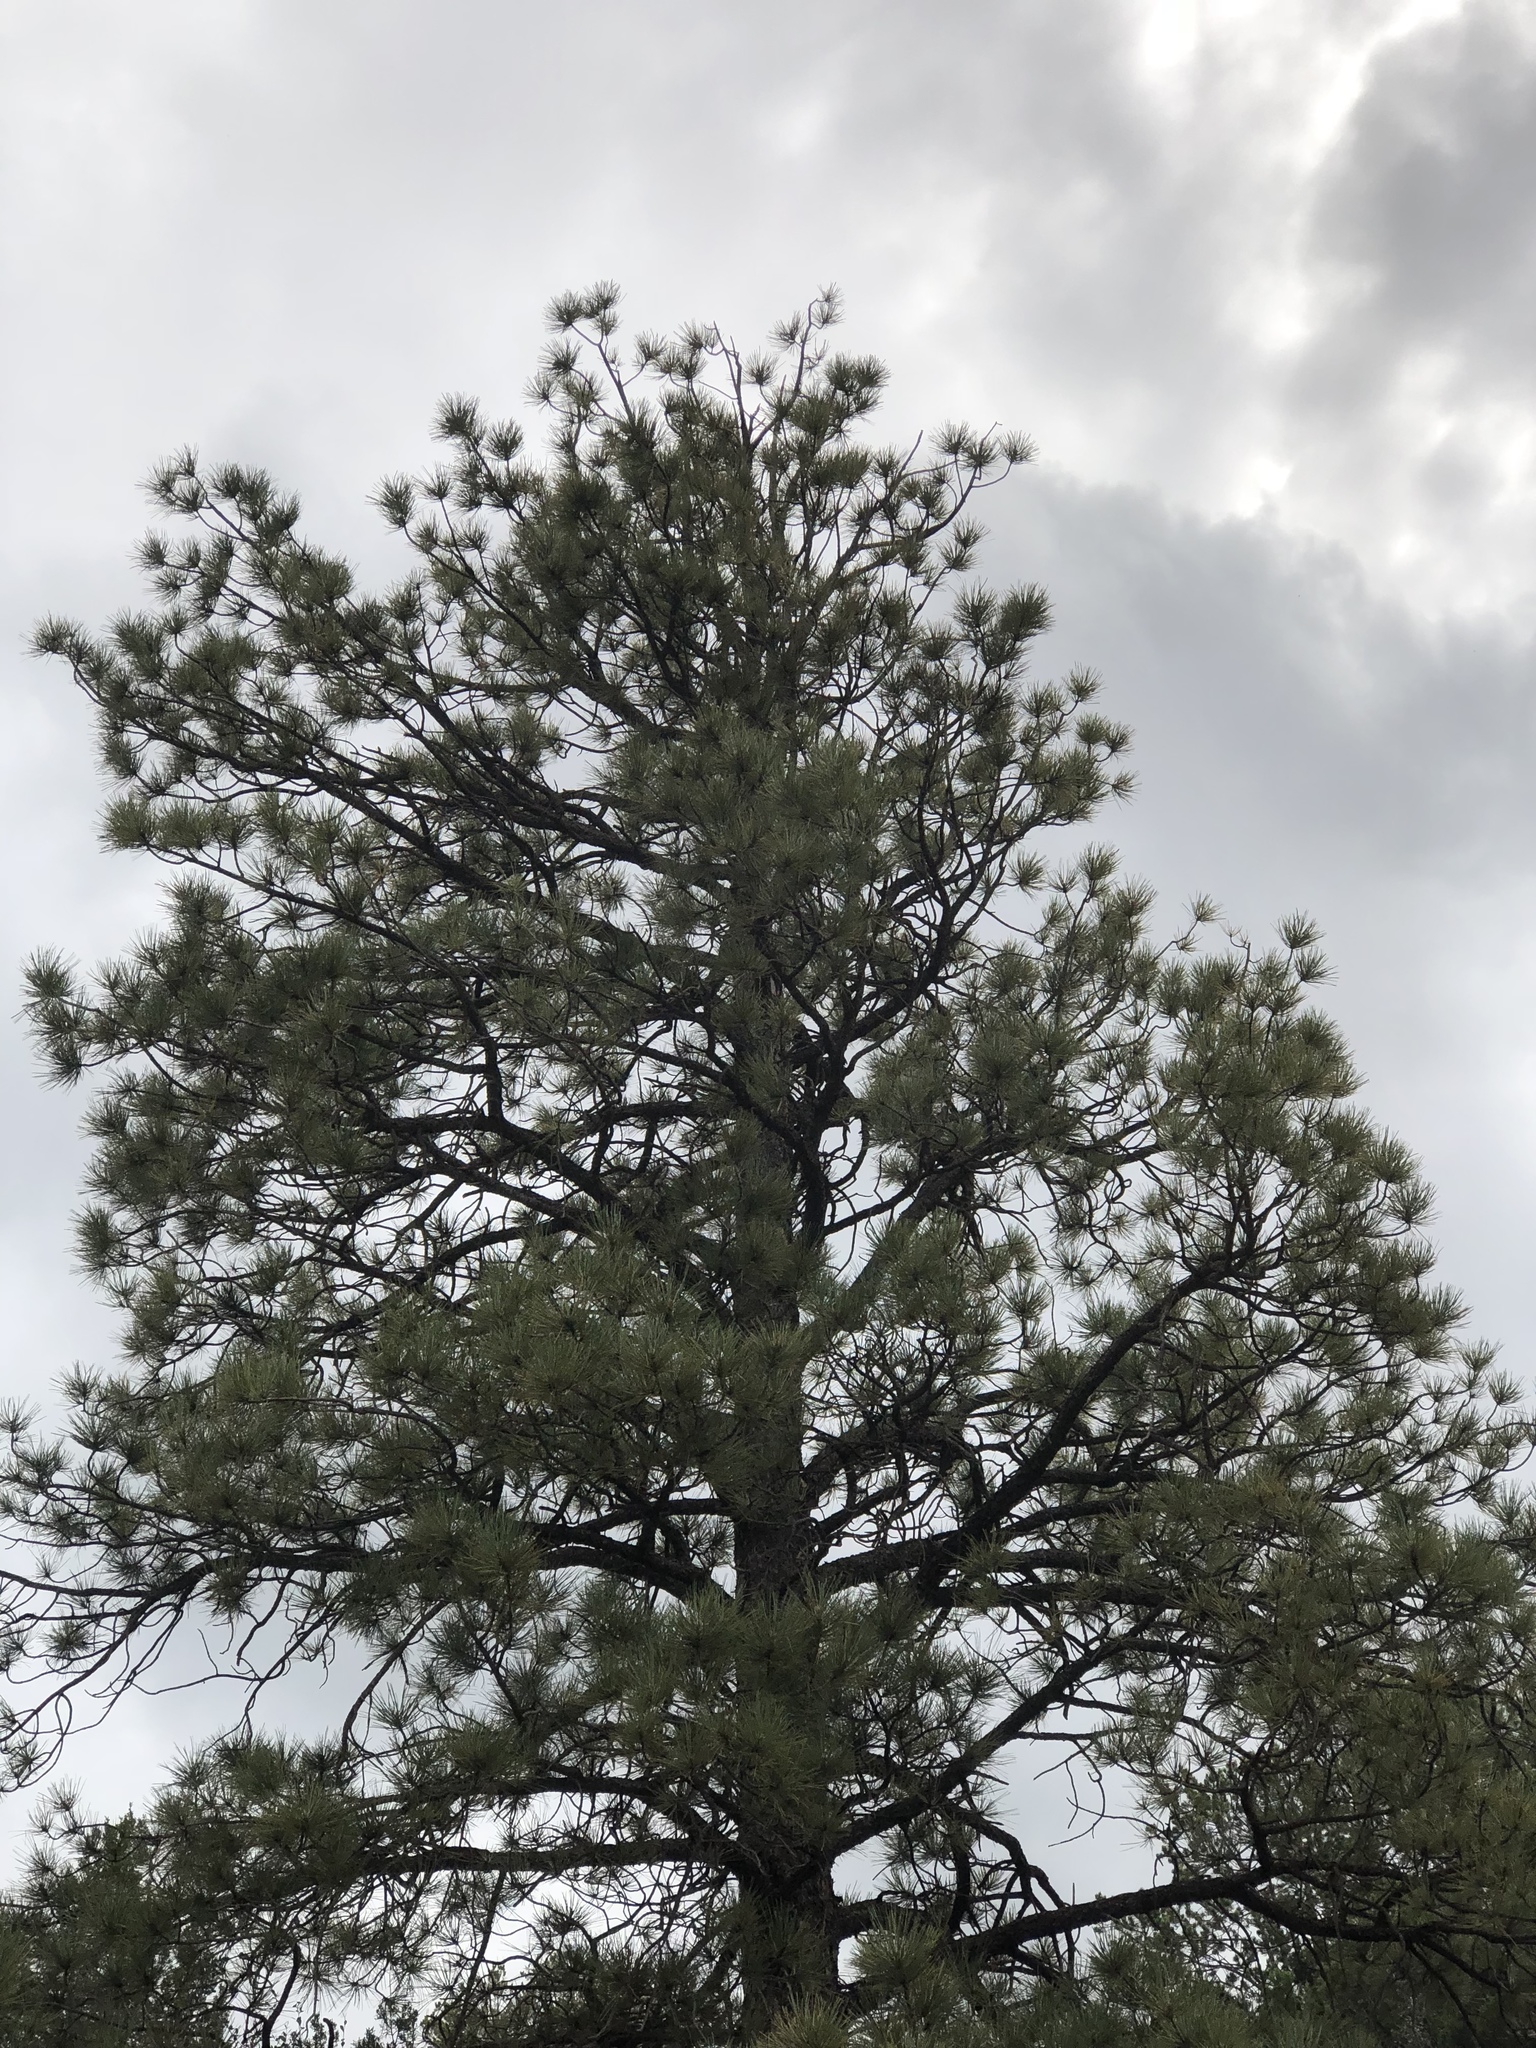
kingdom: Plantae
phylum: Tracheophyta
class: Pinopsida
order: Pinales
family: Pinaceae
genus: Pinus
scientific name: Pinus ponderosa
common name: Western yellow-pine
